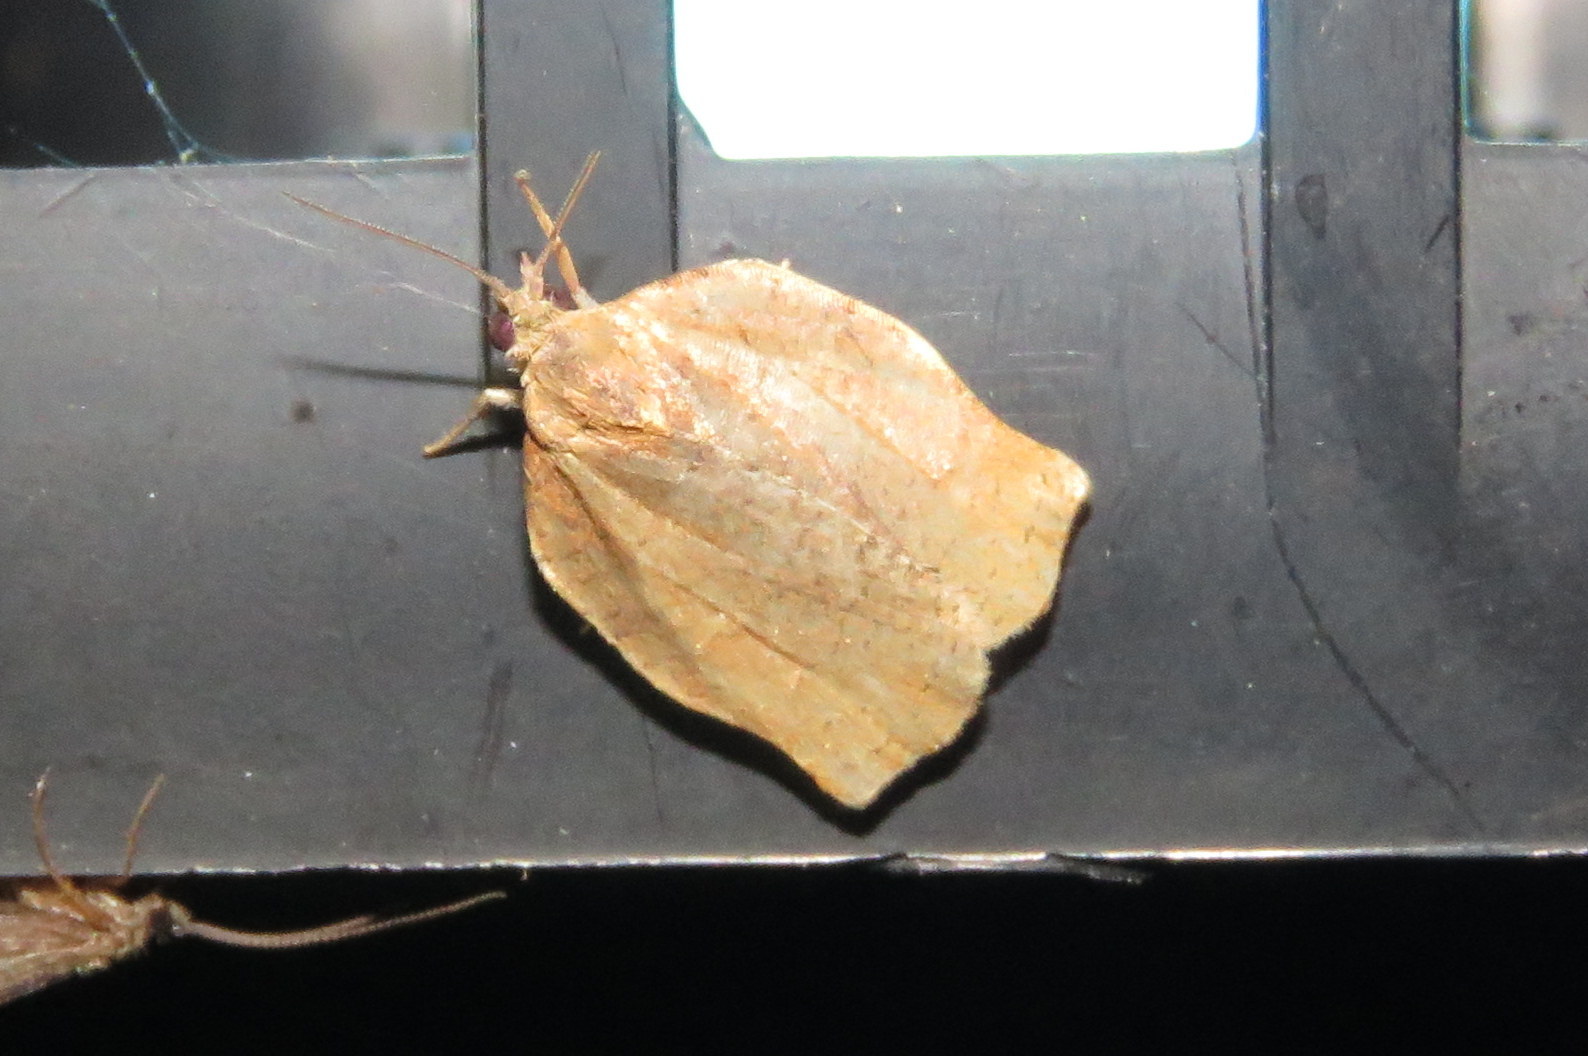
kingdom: Animalia
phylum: Arthropoda
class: Insecta
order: Lepidoptera
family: Tortricidae
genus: Archips
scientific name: Archips purpurana
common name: Omnivorous leafroller
